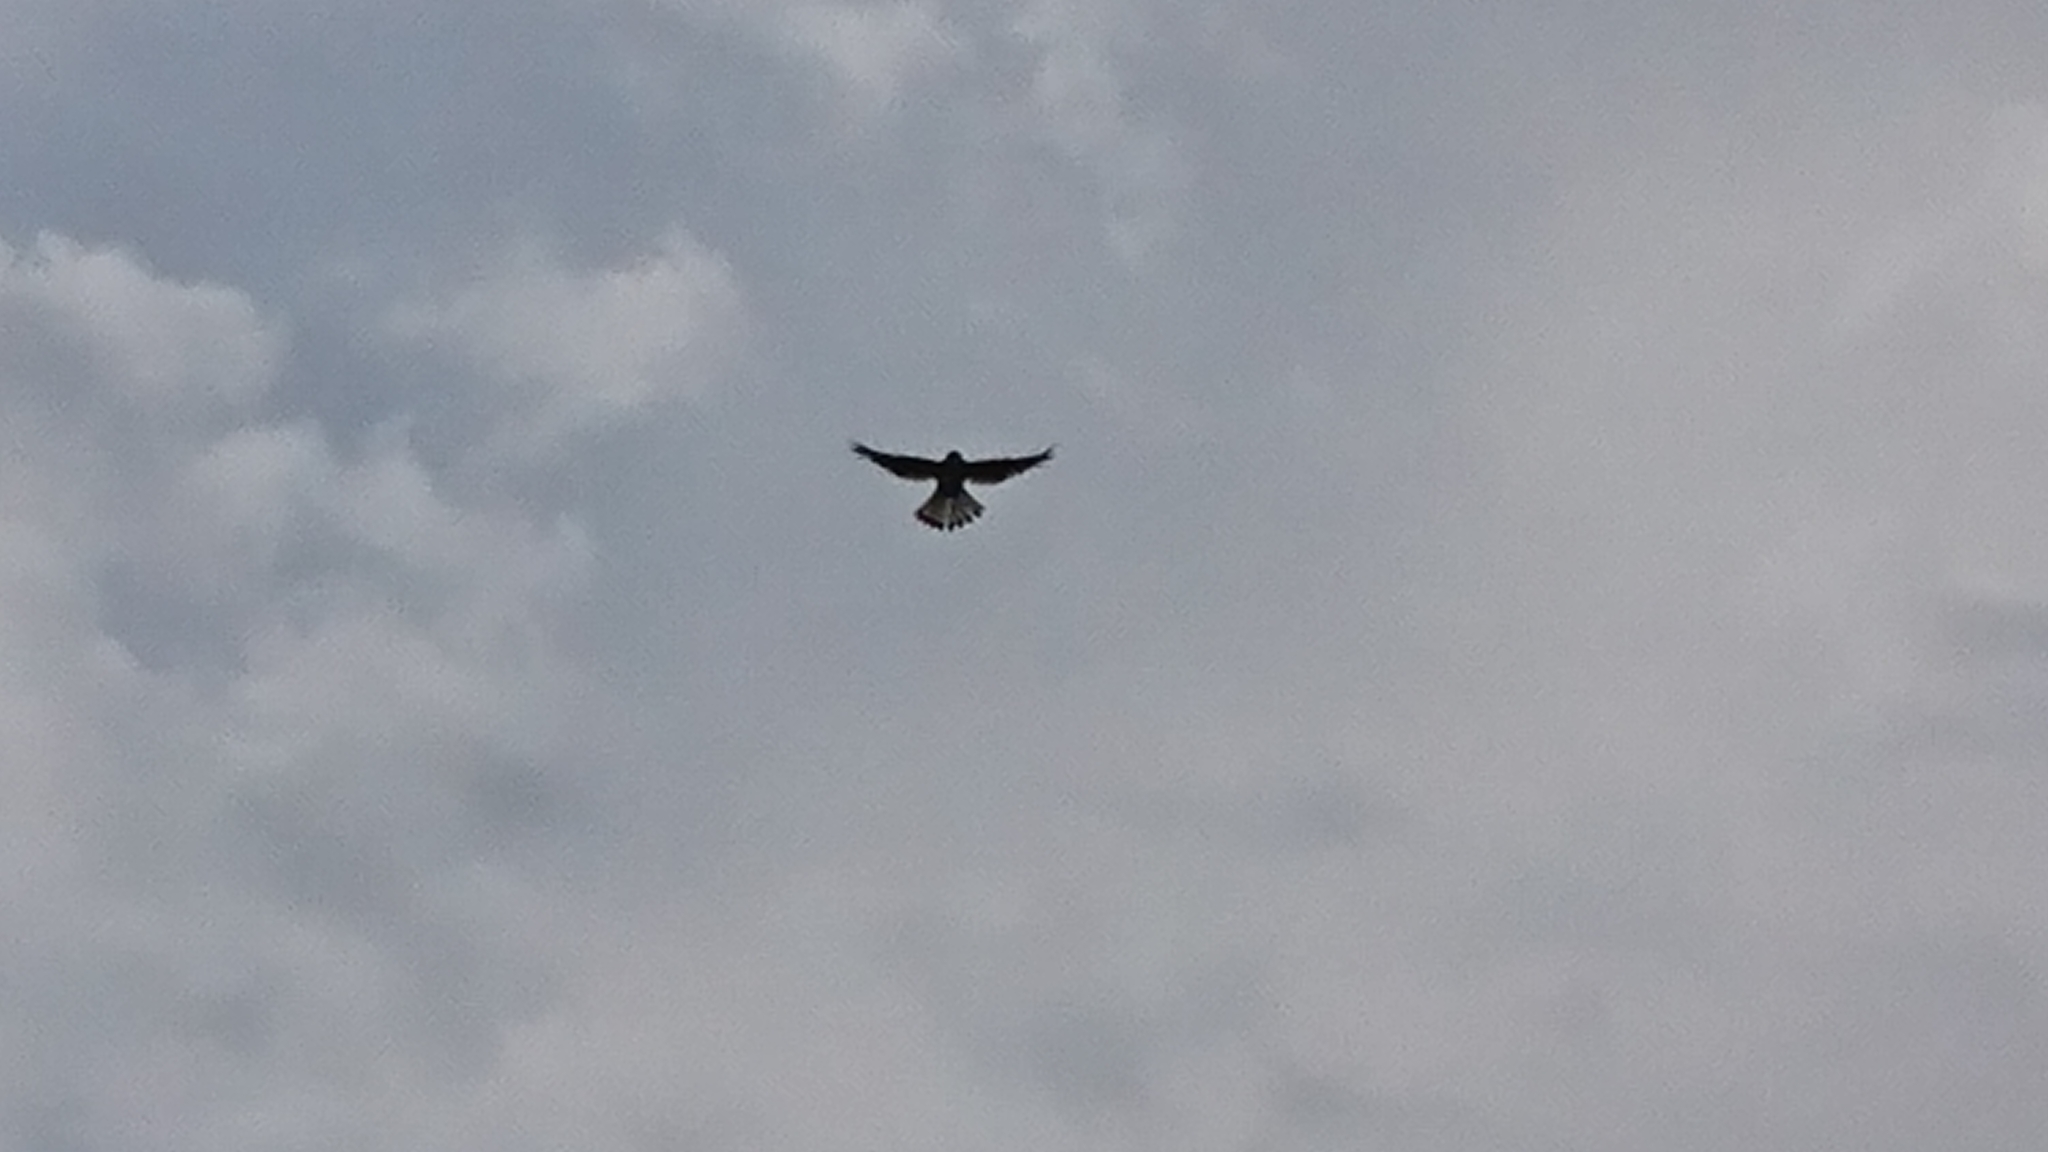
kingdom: Animalia
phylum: Chordata
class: Aves
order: Falconiformes
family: Falconidae
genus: Falco
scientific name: Falco tinnunculus
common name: Common kestrel
